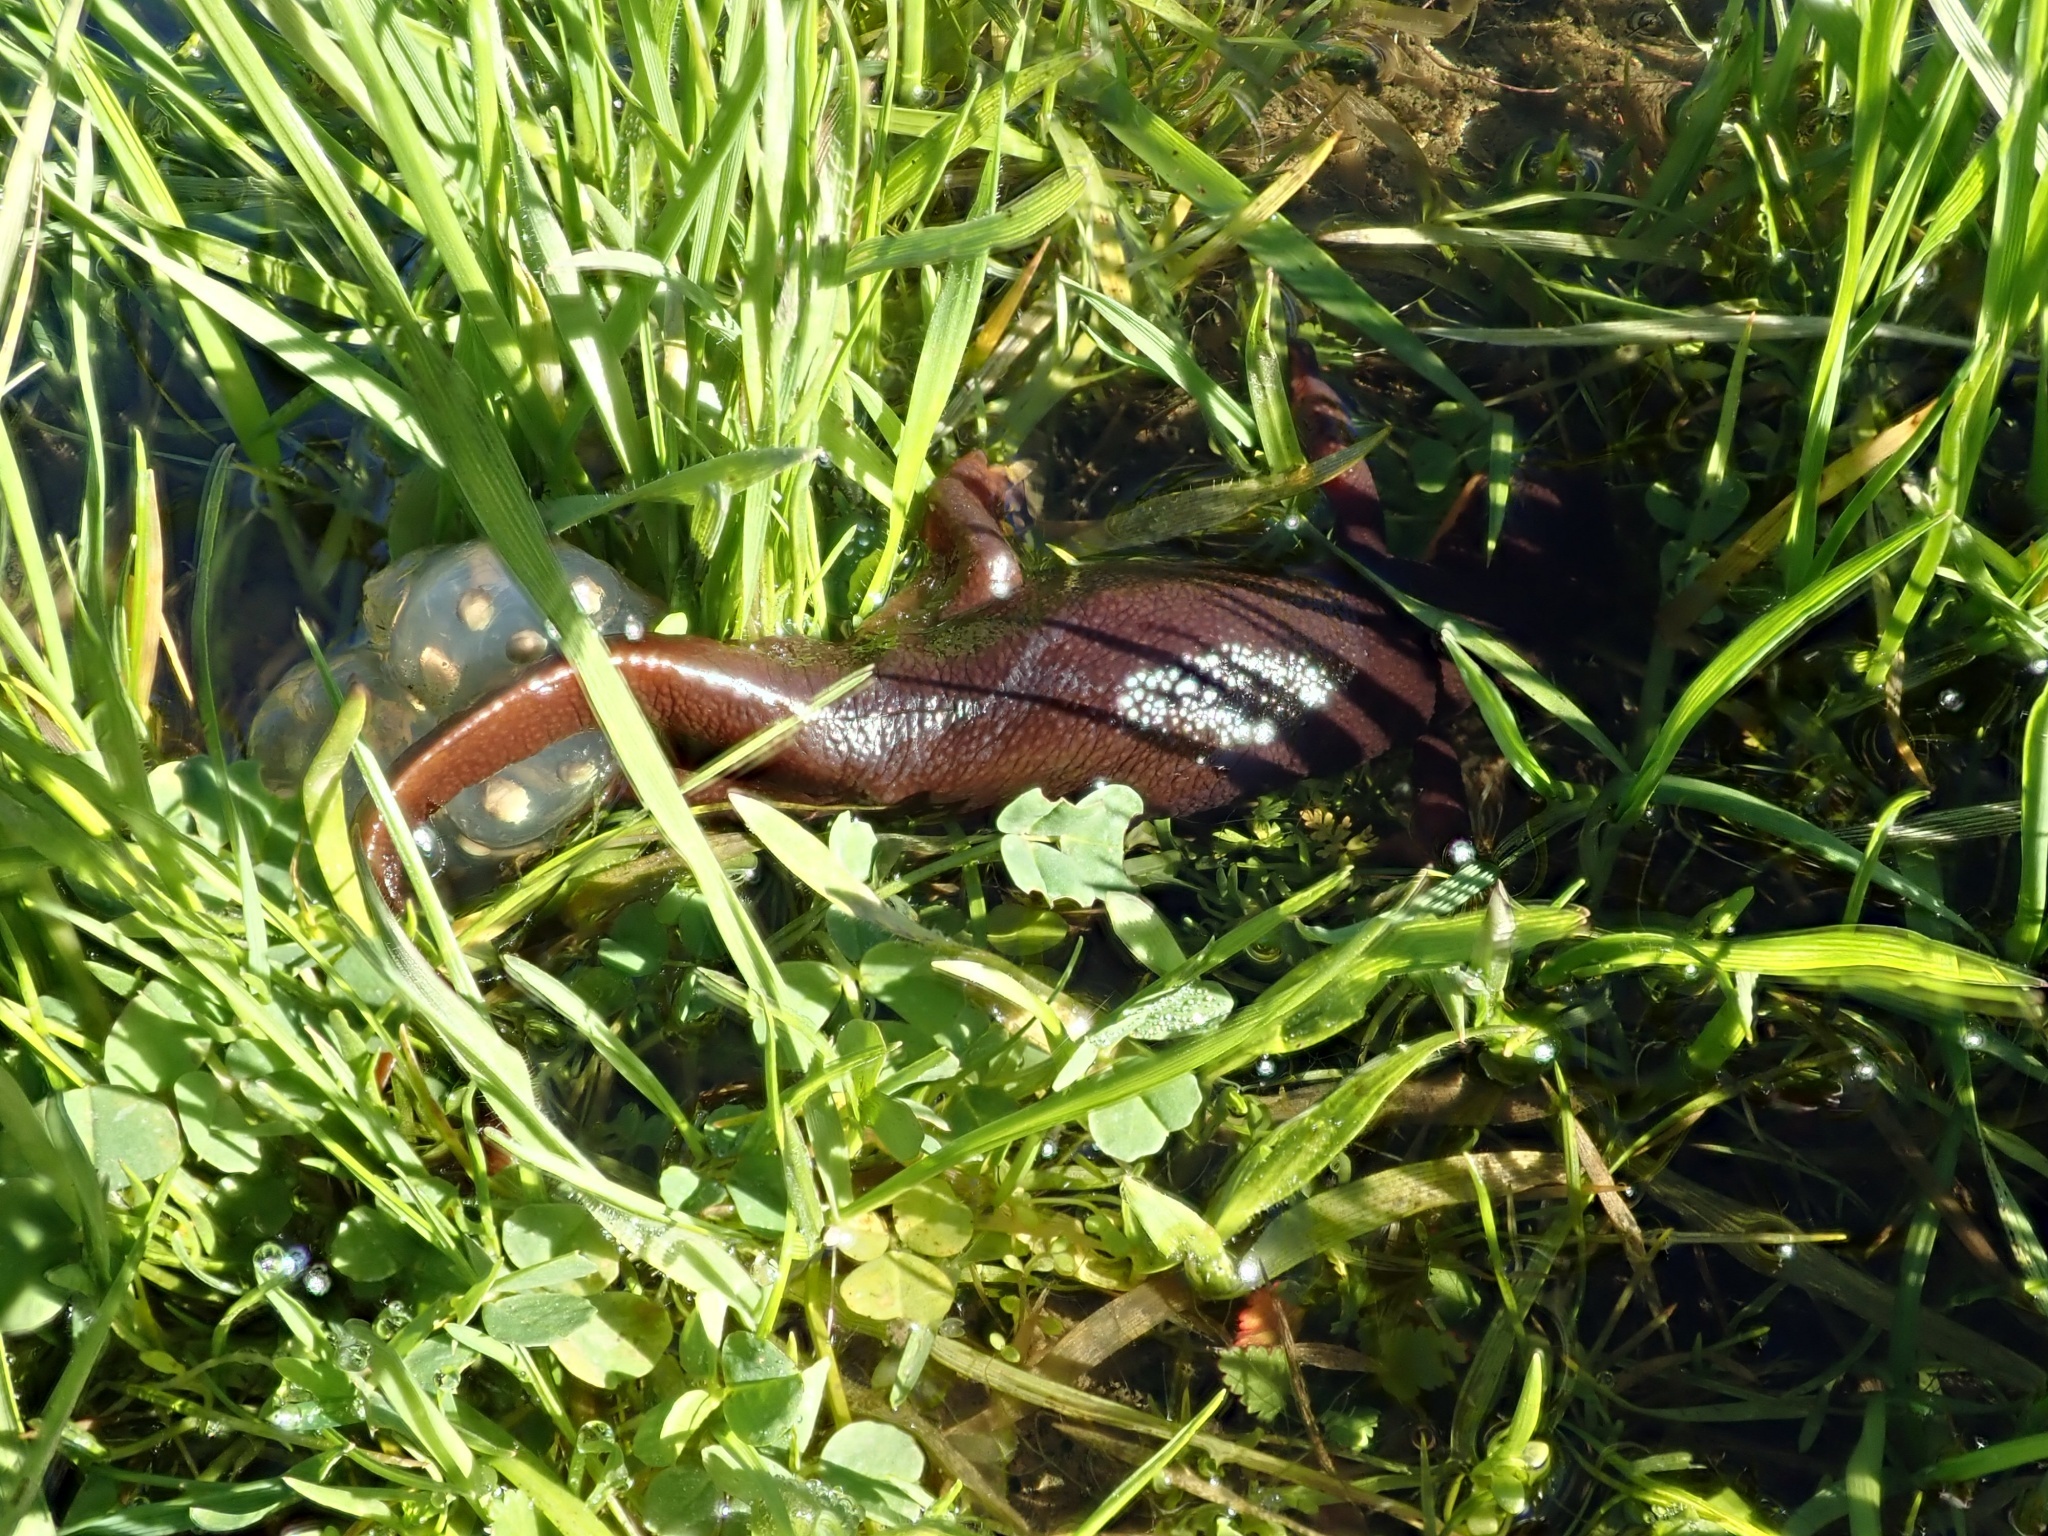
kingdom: Animalia
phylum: Chordata
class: Amphibia
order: Caudata
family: Salamandridae
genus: Taricha
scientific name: Taricha torosa
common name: California newt
